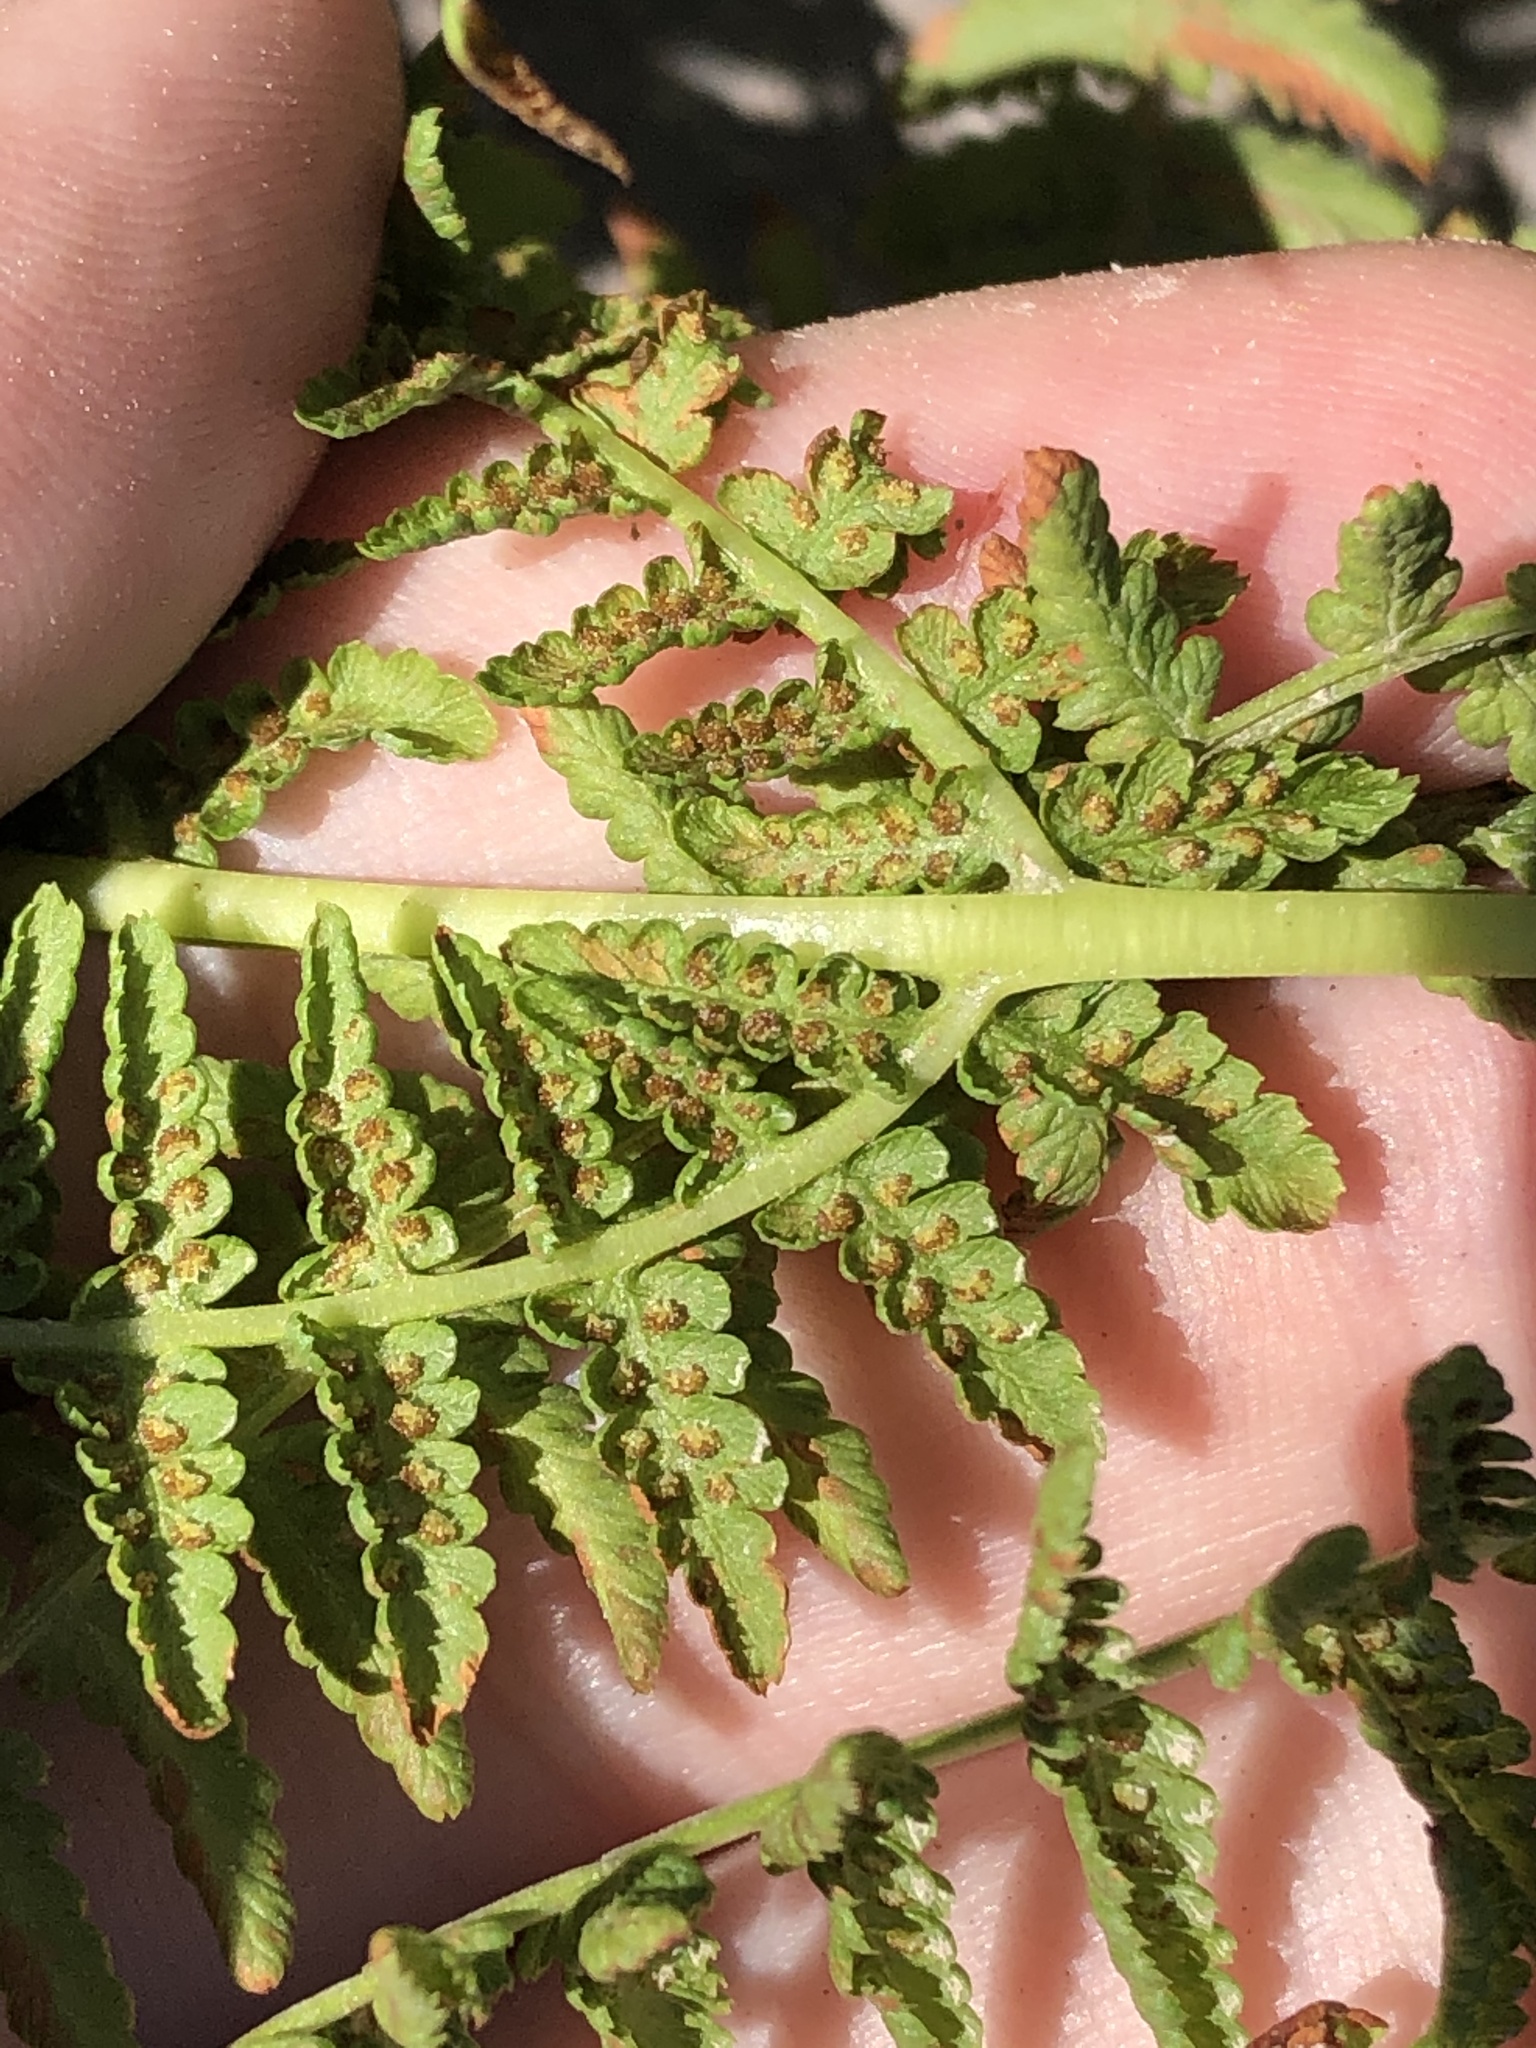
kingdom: Plantae
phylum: Tracheophyta
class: Polypodiopsida
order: Polypodiales
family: Athyriaceae
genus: Athyrium
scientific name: Athyrium americanum
